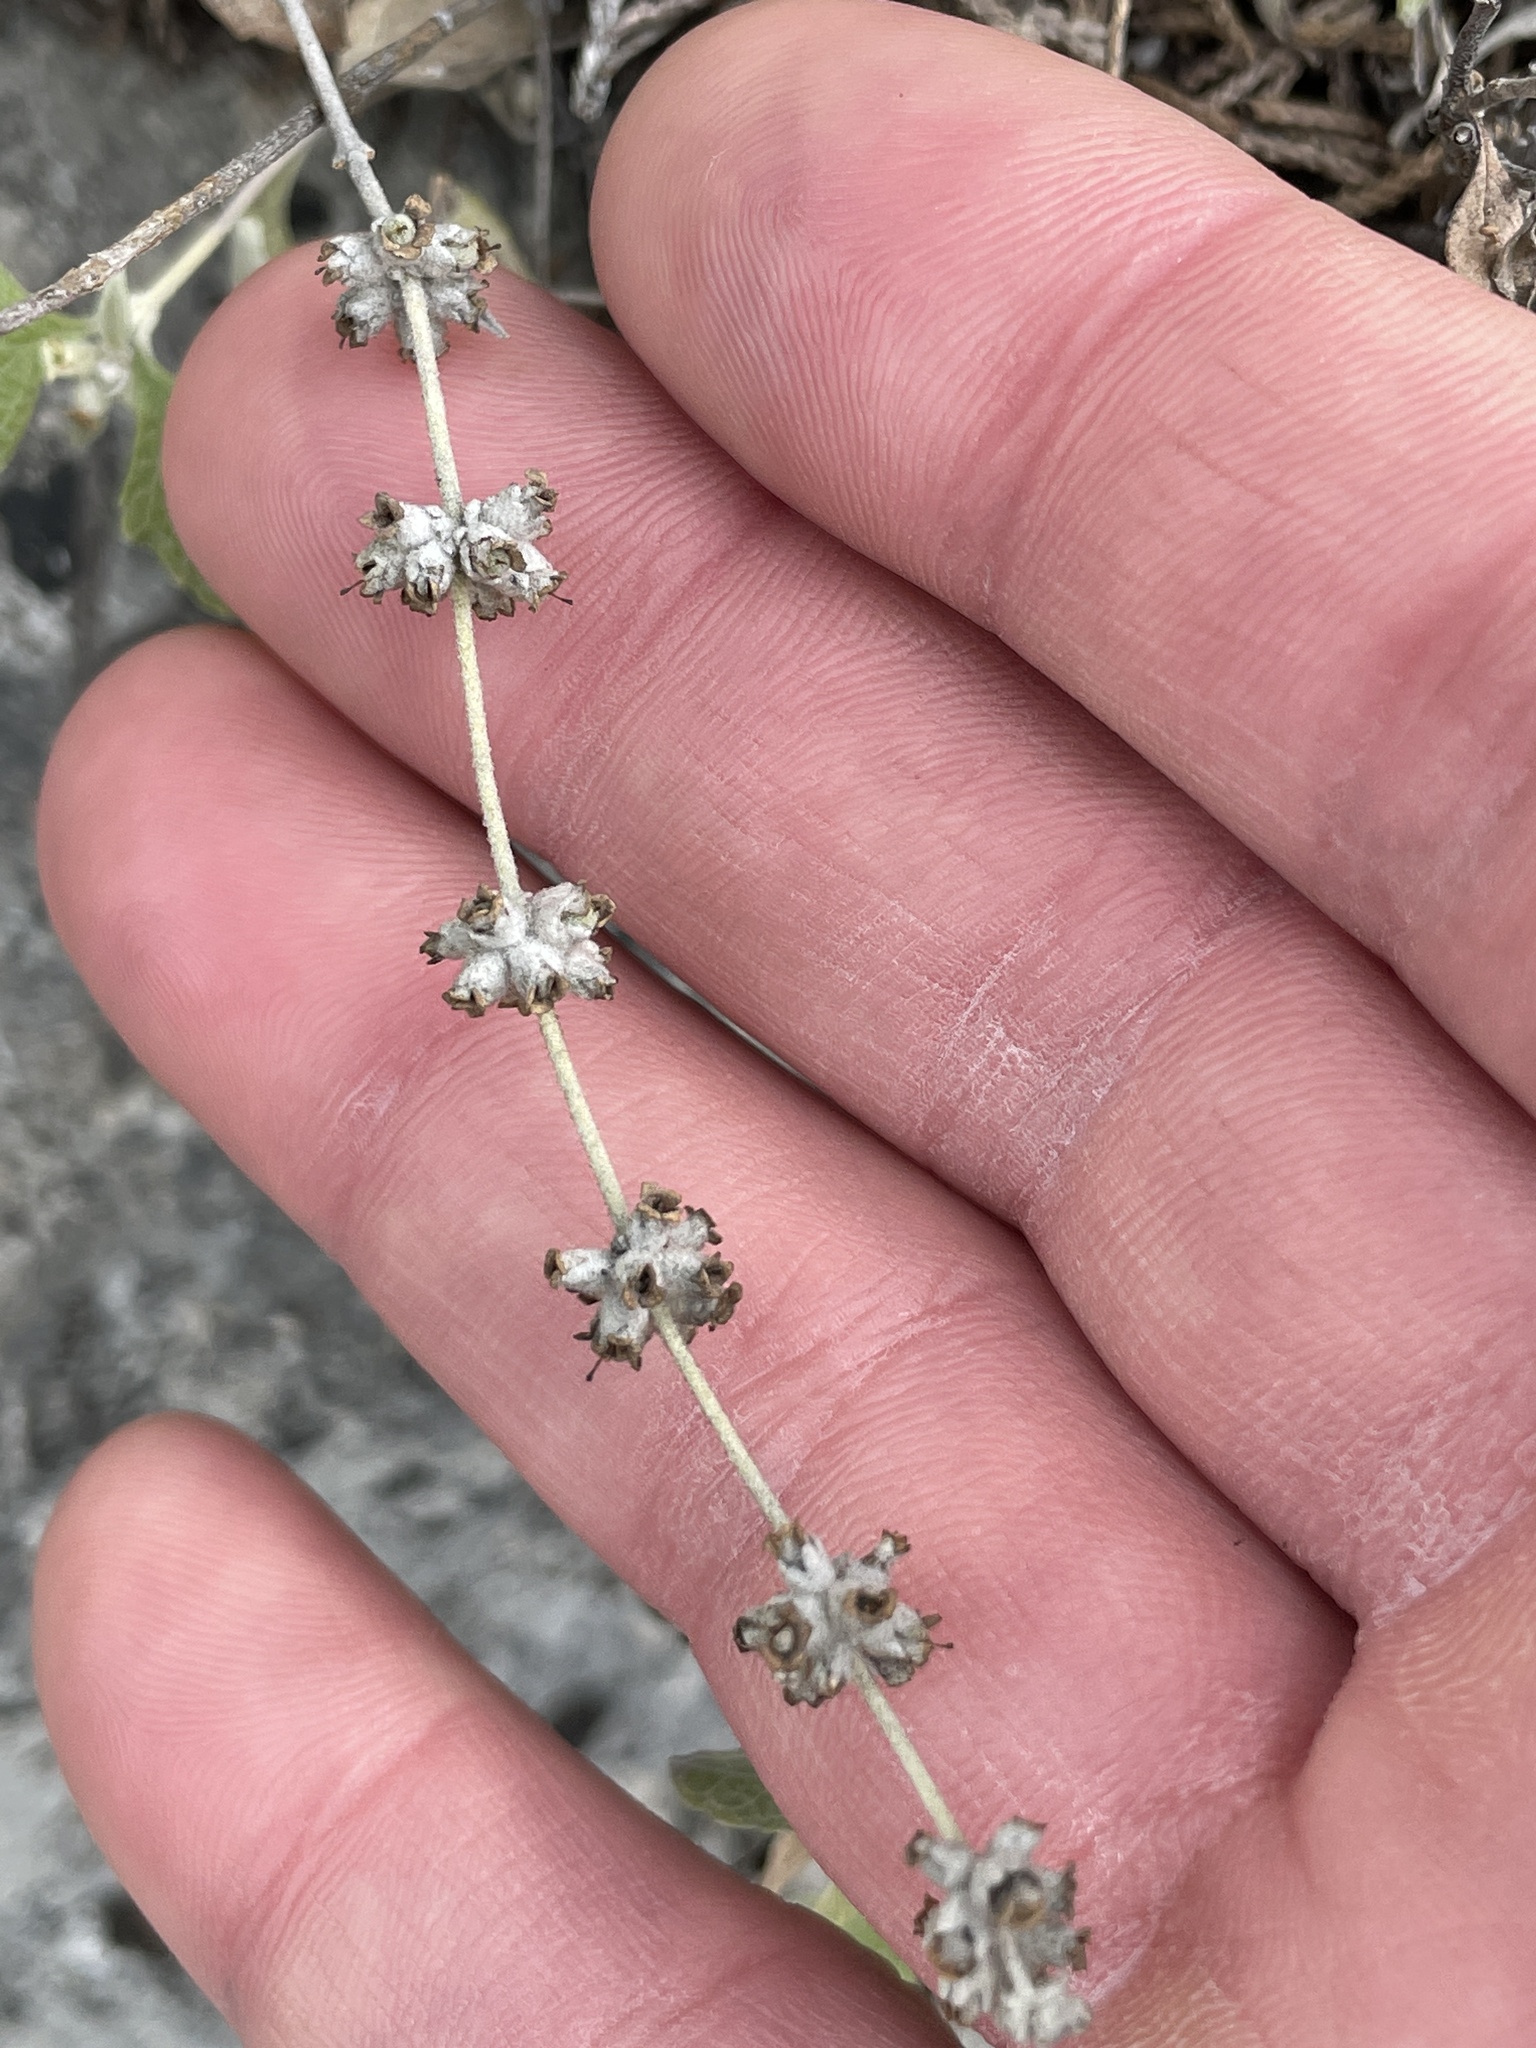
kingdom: Plantae
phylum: Tracheophyta
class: Magnoliopsida
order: Lamiales
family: Scrophulariaceae
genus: Buddleja
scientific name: Buddleja racemosa
